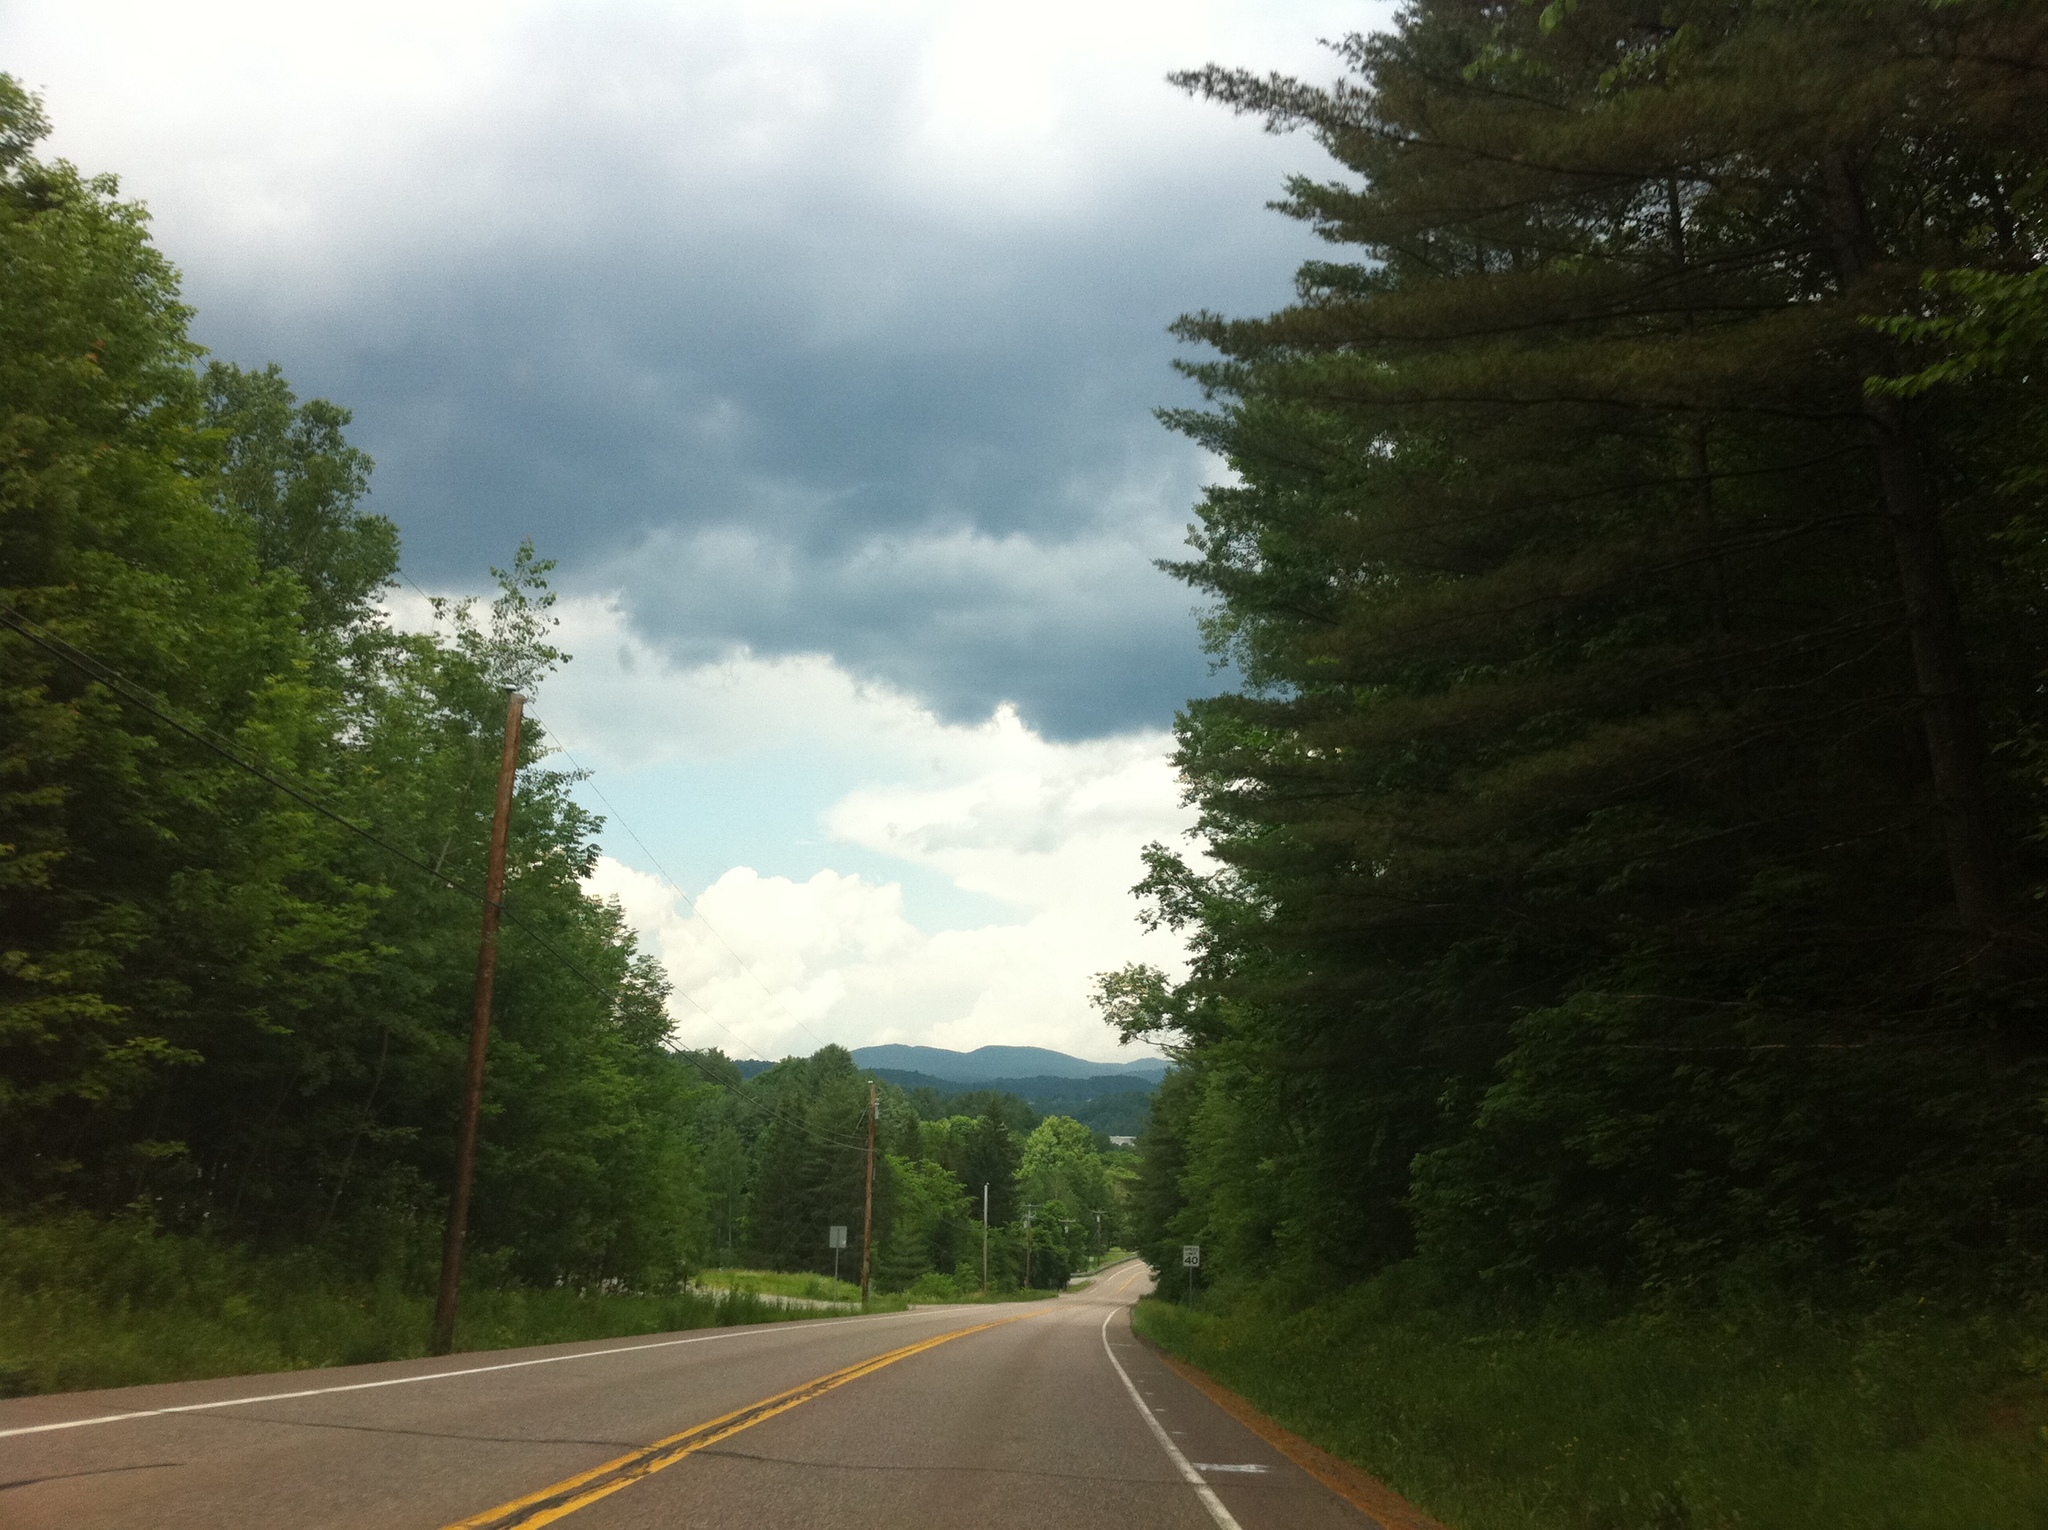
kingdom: Plantae
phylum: Tracheophyta
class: Pinopsida
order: Pinales
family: Pinaceae
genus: Pinus
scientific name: Pinus strobus
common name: Weymouth pine
